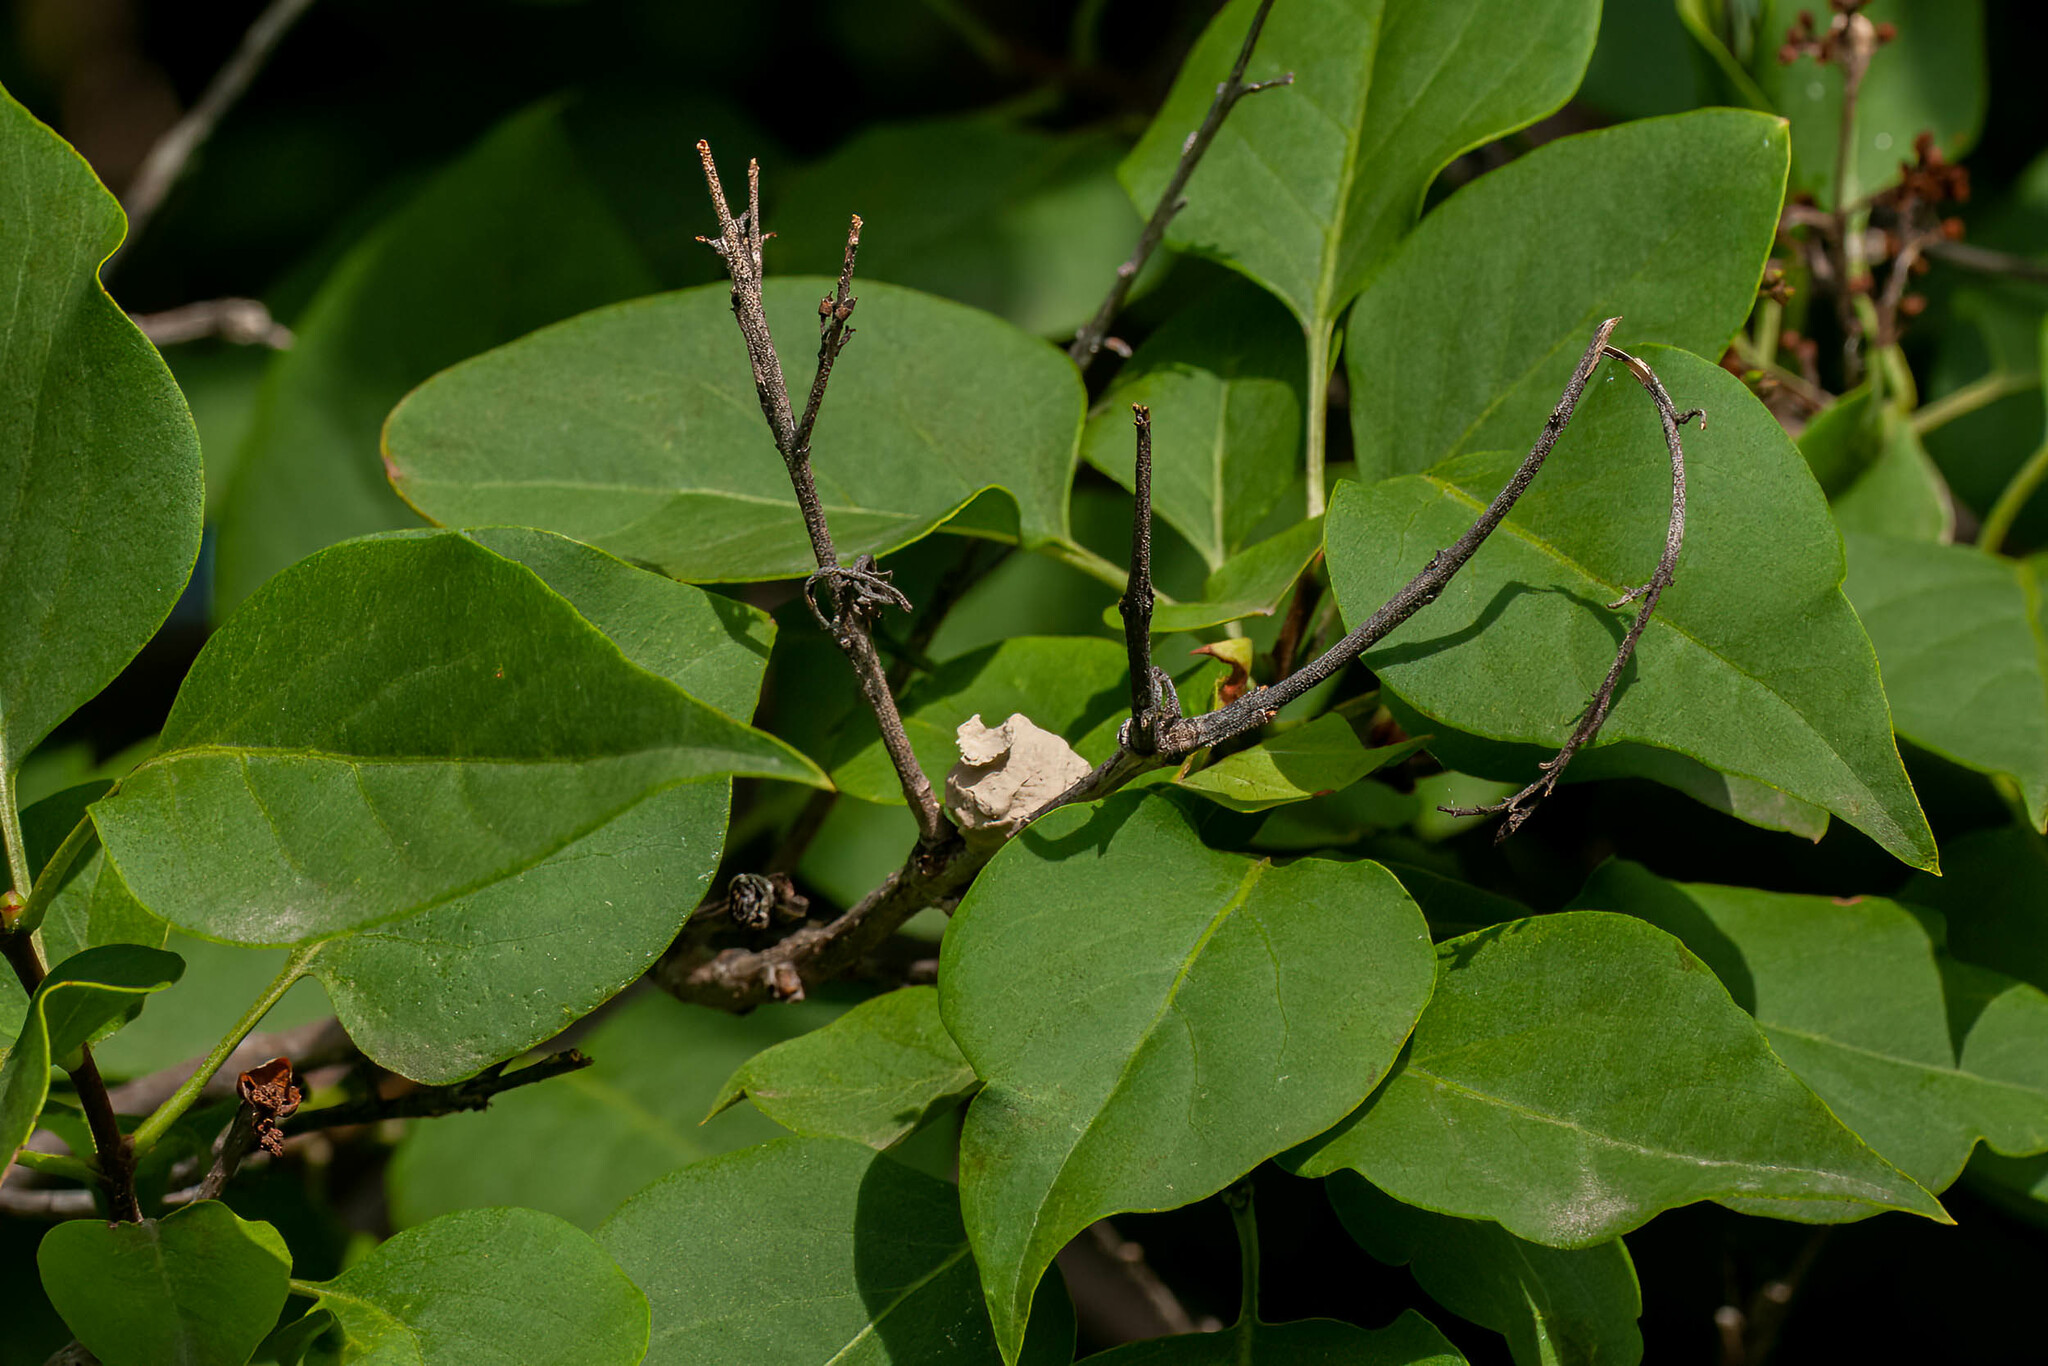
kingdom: Animalia
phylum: Arthropoda
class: Insecta
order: Hymenoptera
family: Vespidae
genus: Eumenes
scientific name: Eumenes
